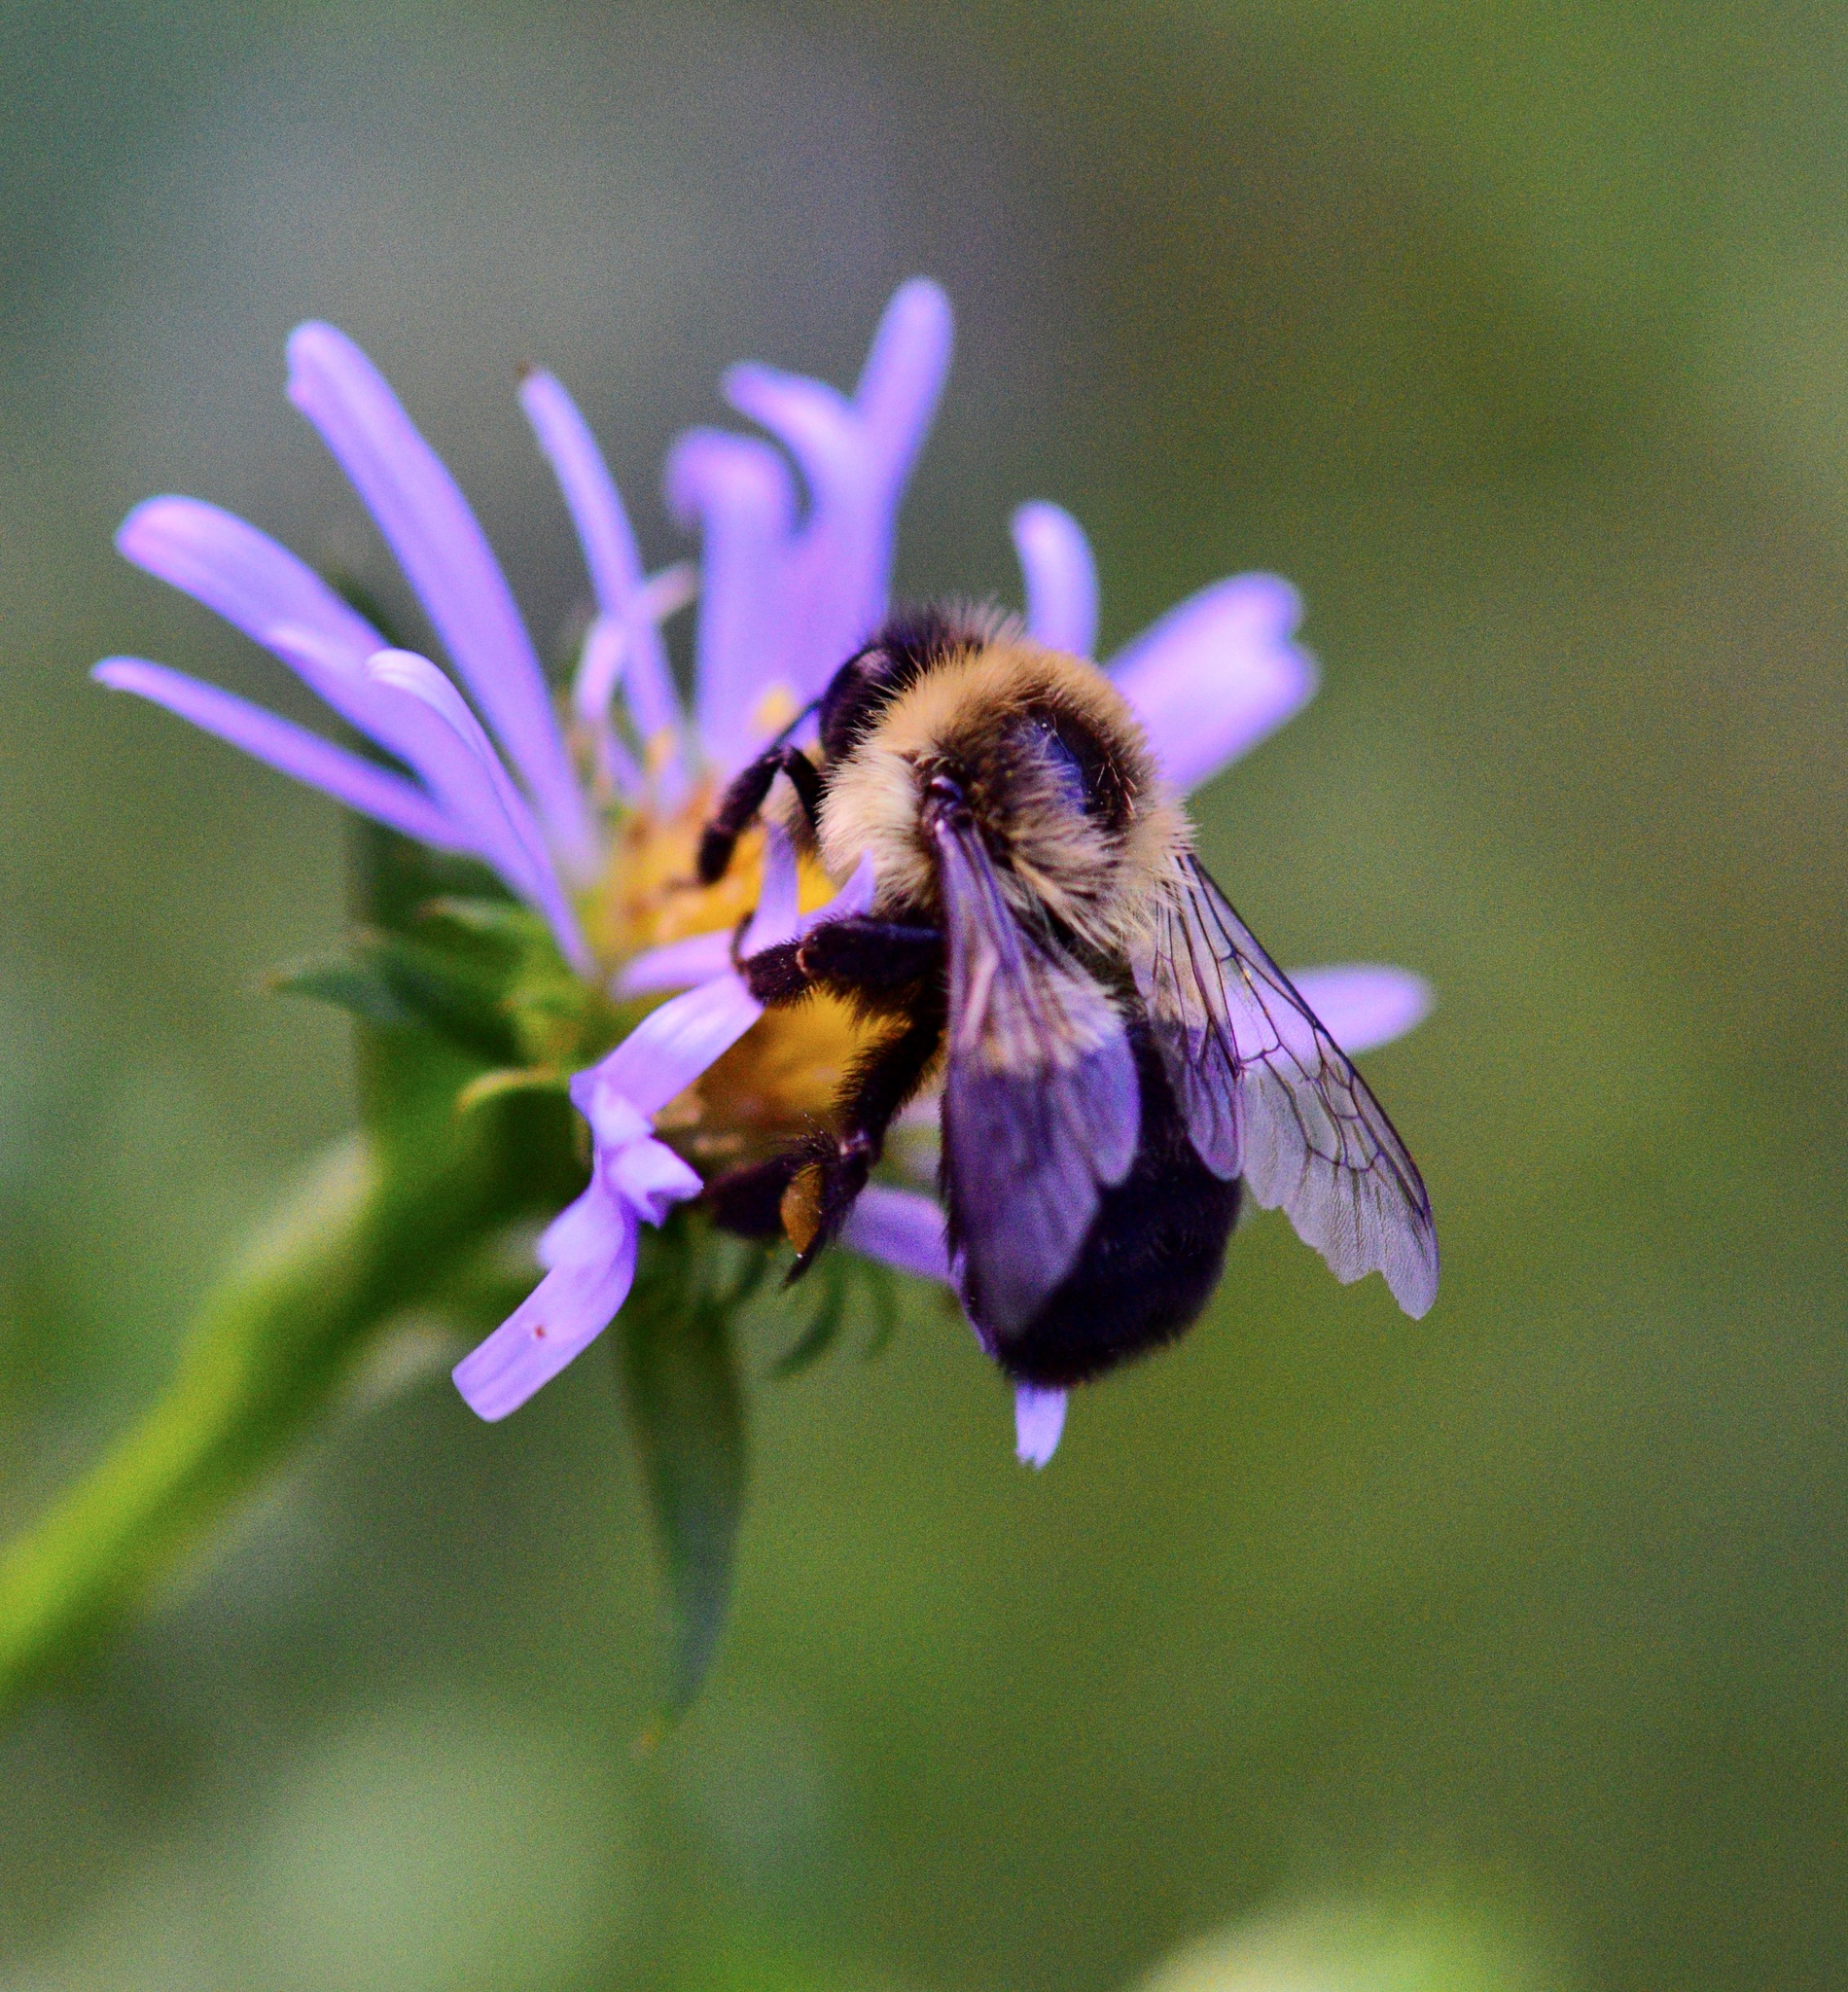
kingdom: Animalia
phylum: Arthropoda
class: Insecta
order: Hymenoptera
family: Apidae
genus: Bombus
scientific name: Bombus impatiens
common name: Common eastern bumble bee
